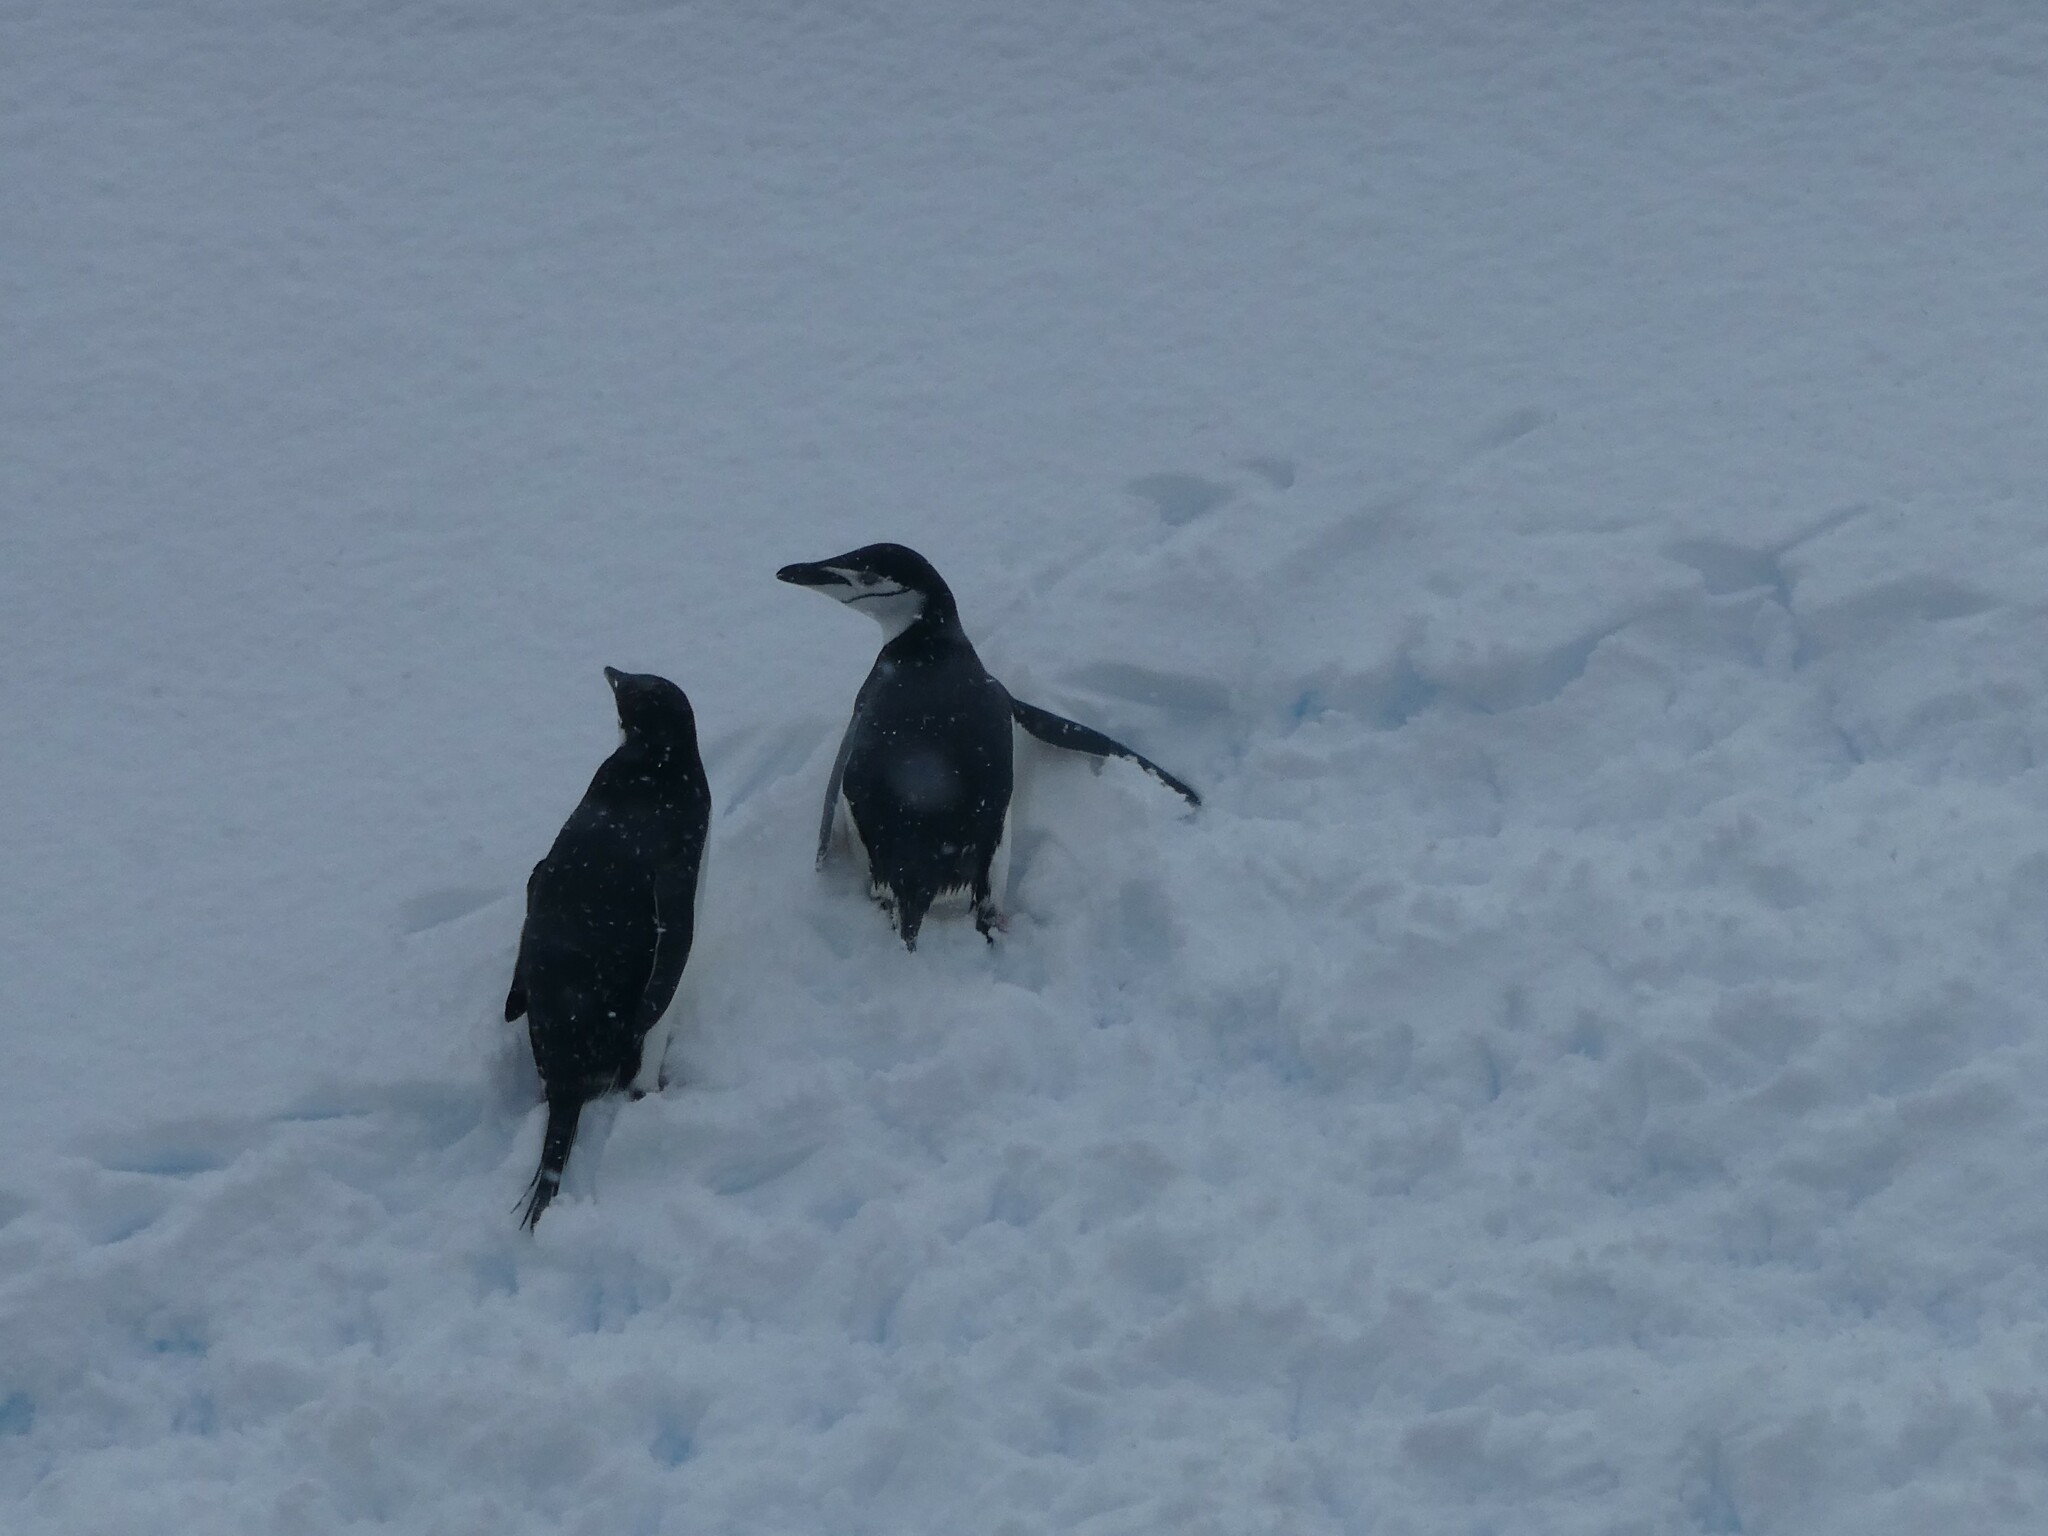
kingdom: Animalia
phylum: Chordata
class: Aves
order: Sphenisciformes
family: Spheniscidae
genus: Pygoscelis
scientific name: Pygoscelis antarcticus
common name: Chinstrap penguin
